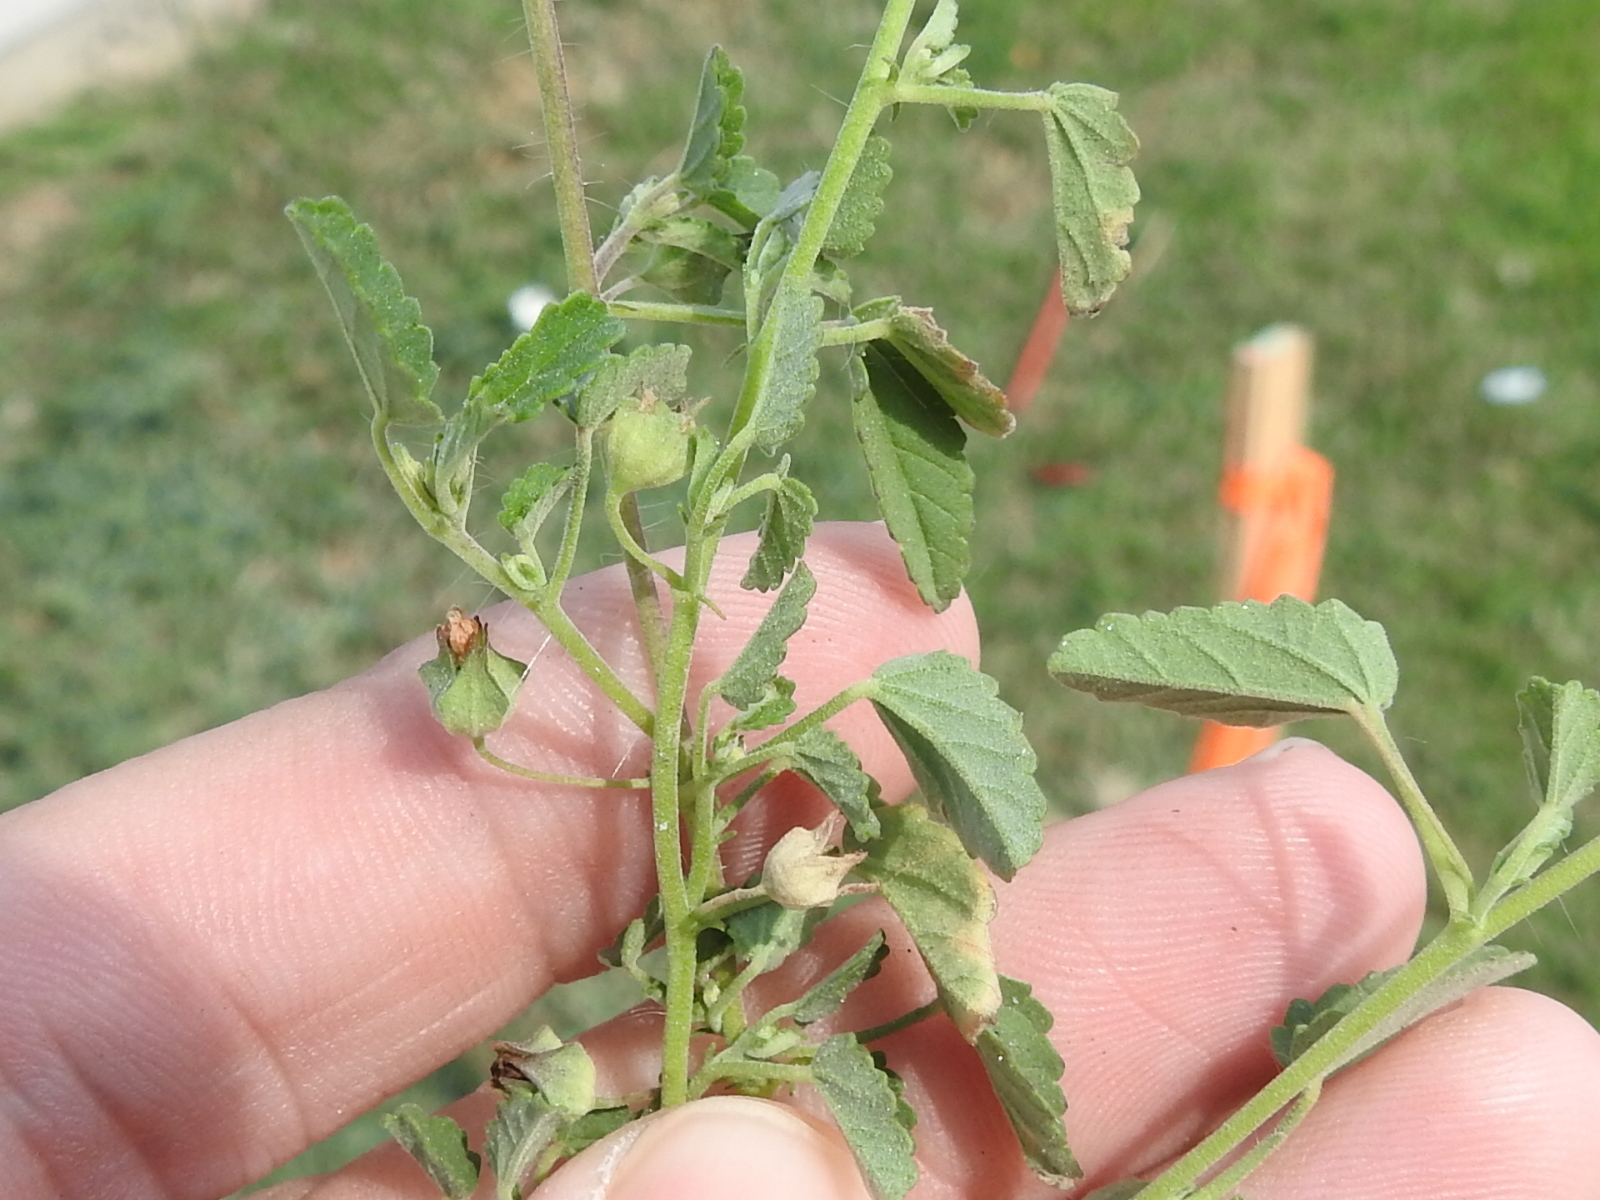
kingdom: Plantae
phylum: Tracheophyta
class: Magnoliopsida
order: Malvales
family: Malvaceae
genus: Sida
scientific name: Sida abutilifolia
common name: Spreading fanpetals
